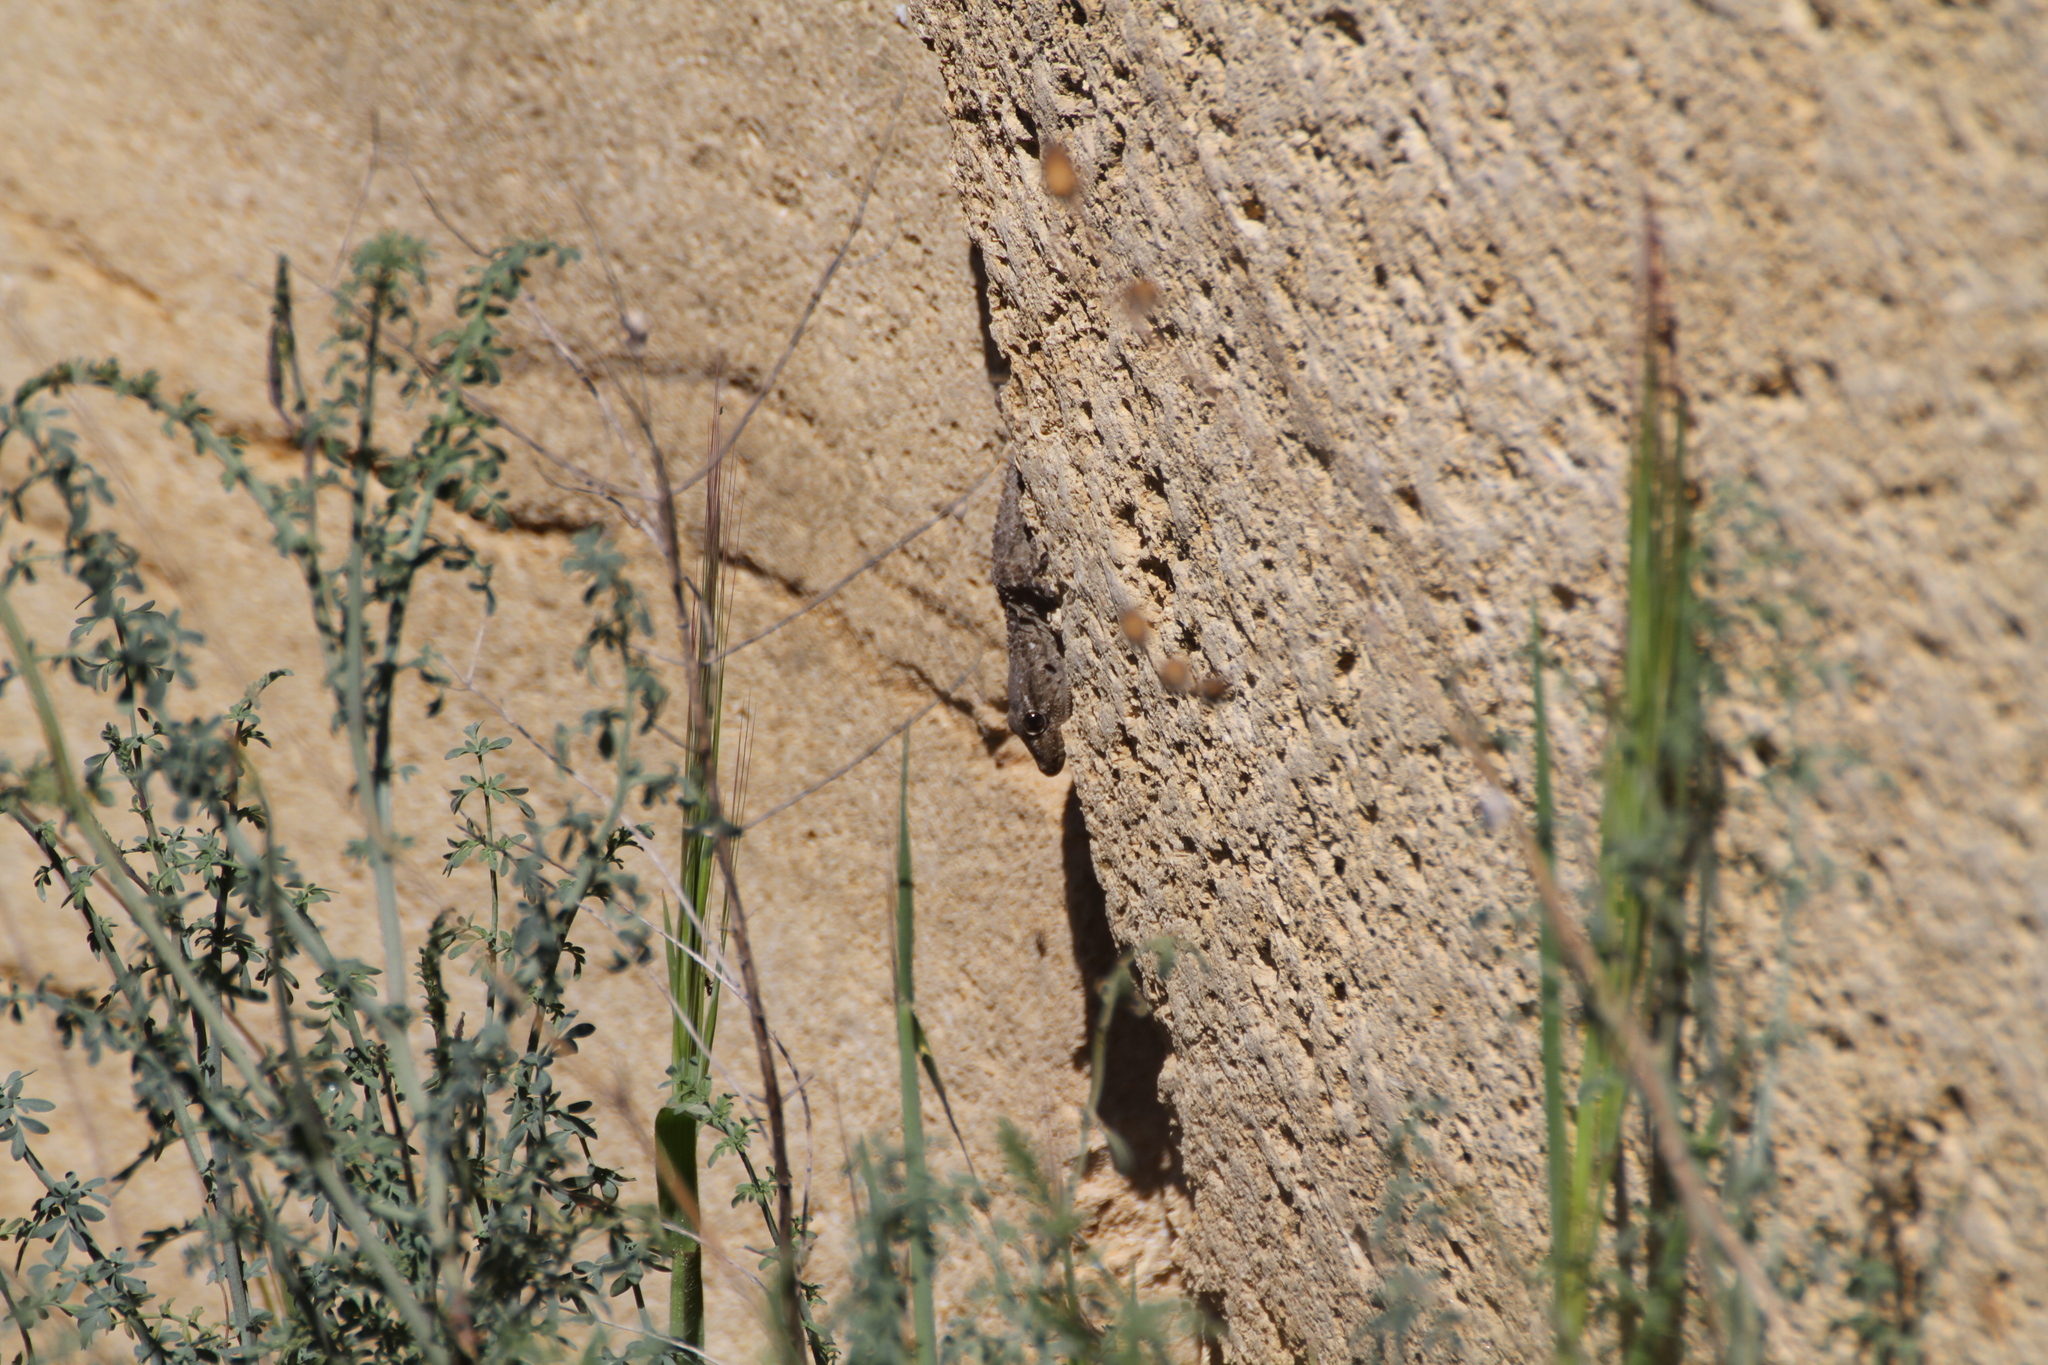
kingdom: Animalia
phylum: Chordata
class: Squamata
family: Phyllodactylidae
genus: Tarentola
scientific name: Tarentola mauritanica
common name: Moorish gecko
